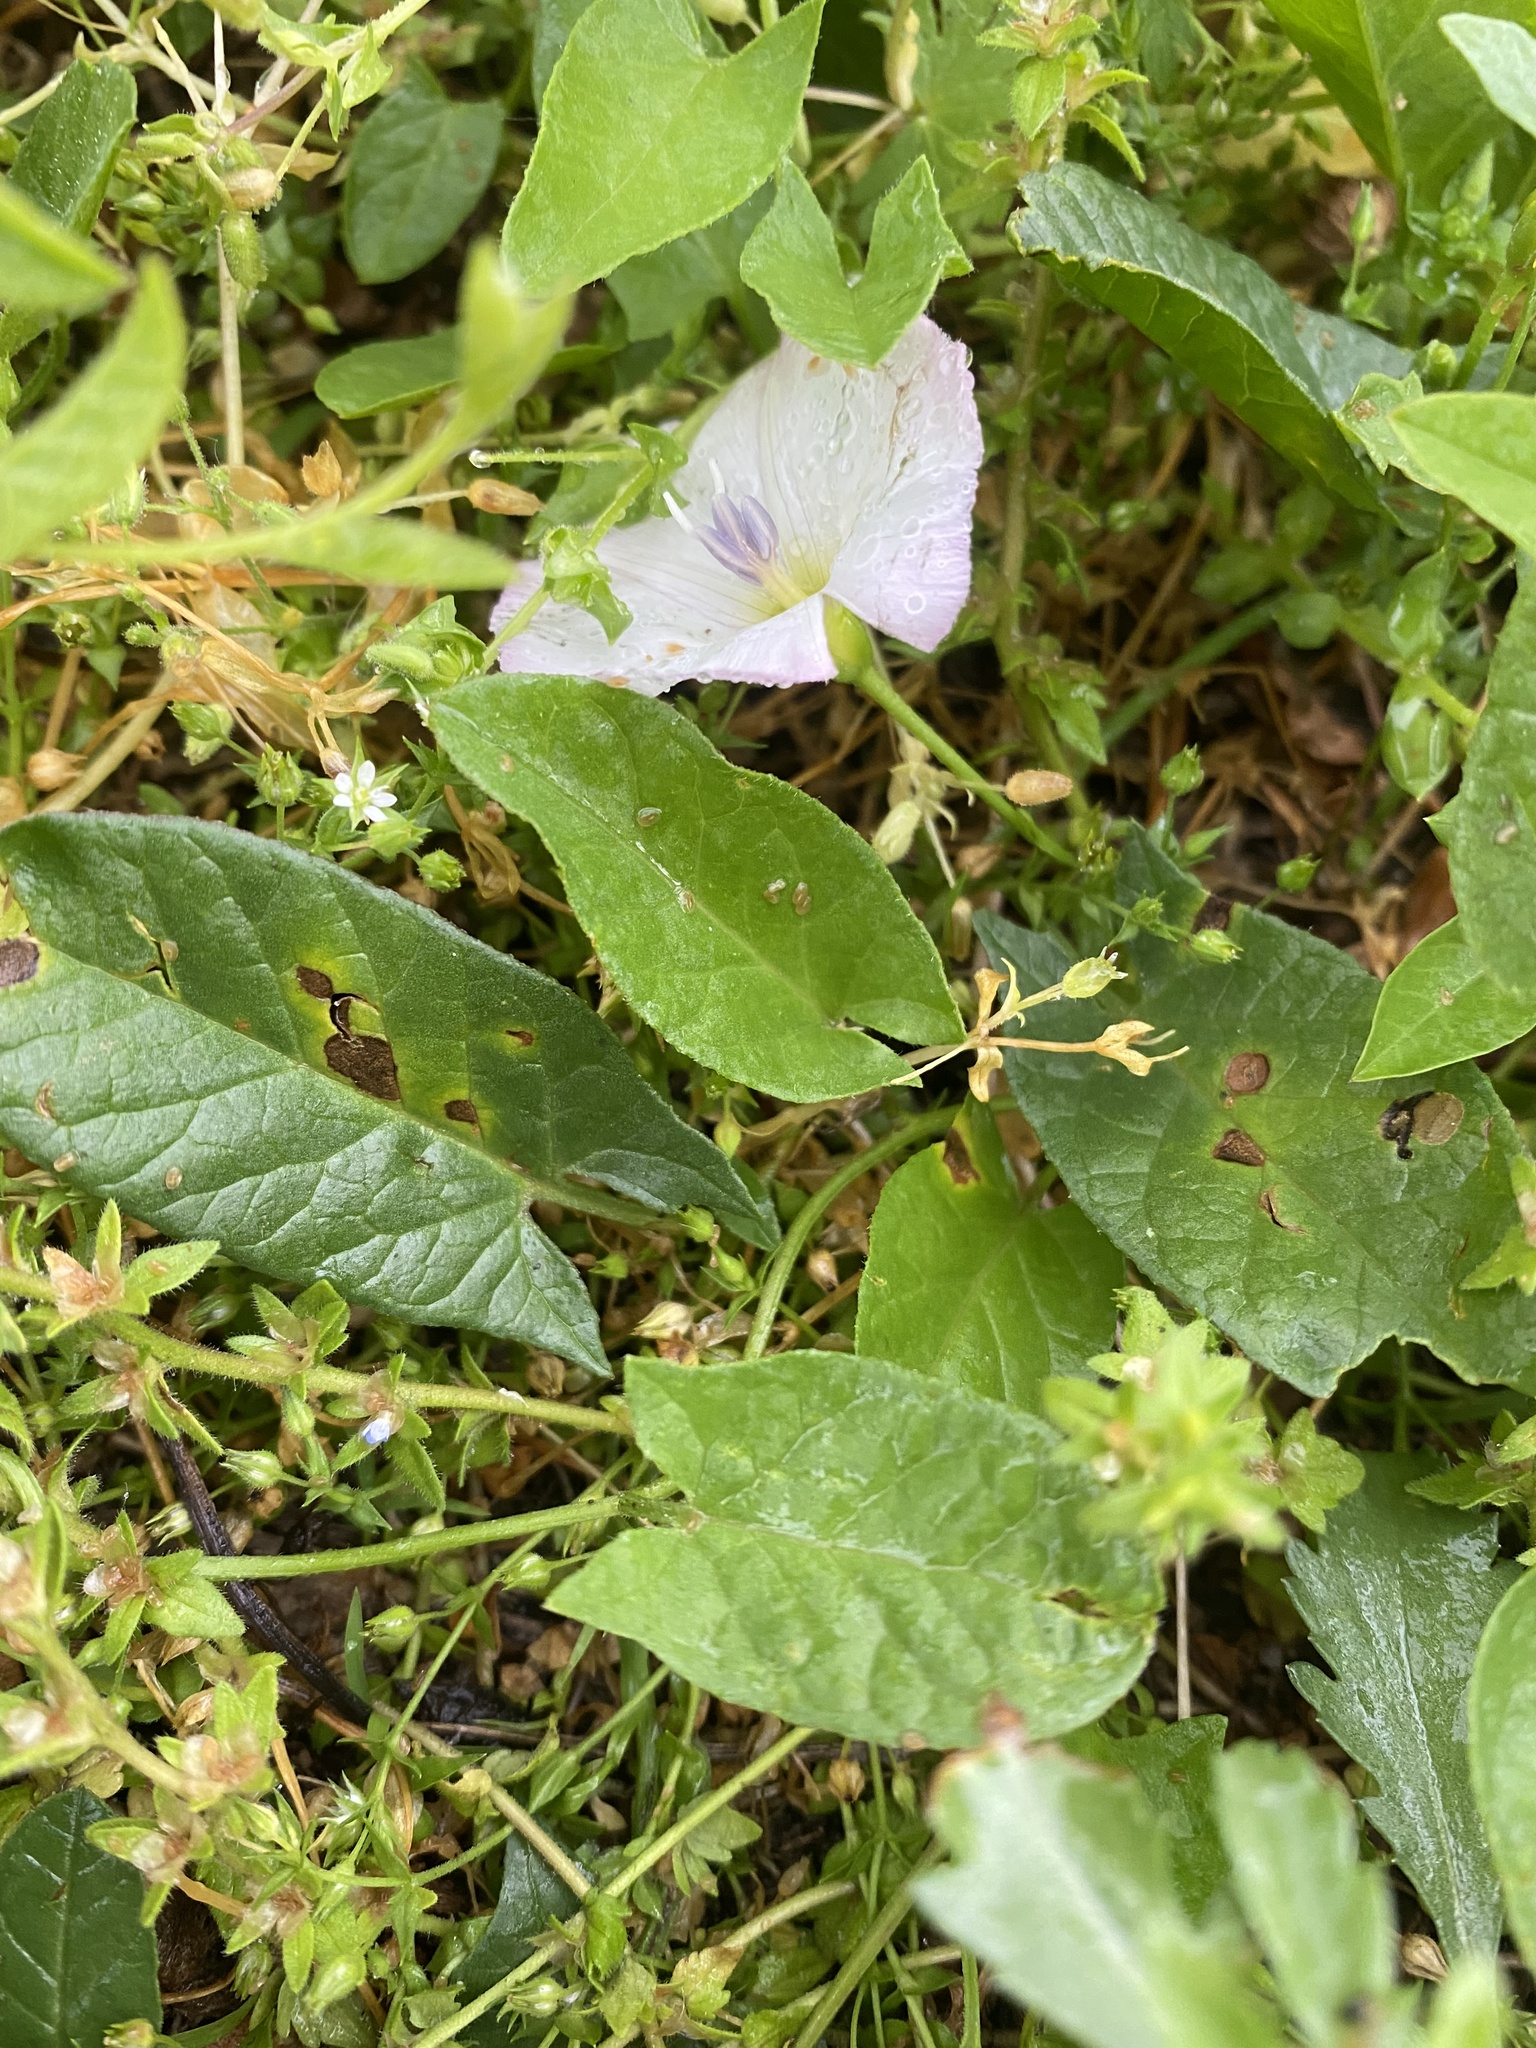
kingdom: Plantae
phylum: Tracheophyta
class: Magnoliopsida
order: Solanales
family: Convolvulaceae
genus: Convolvulus
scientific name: Convolvulus arvensis
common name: Field bindweed
